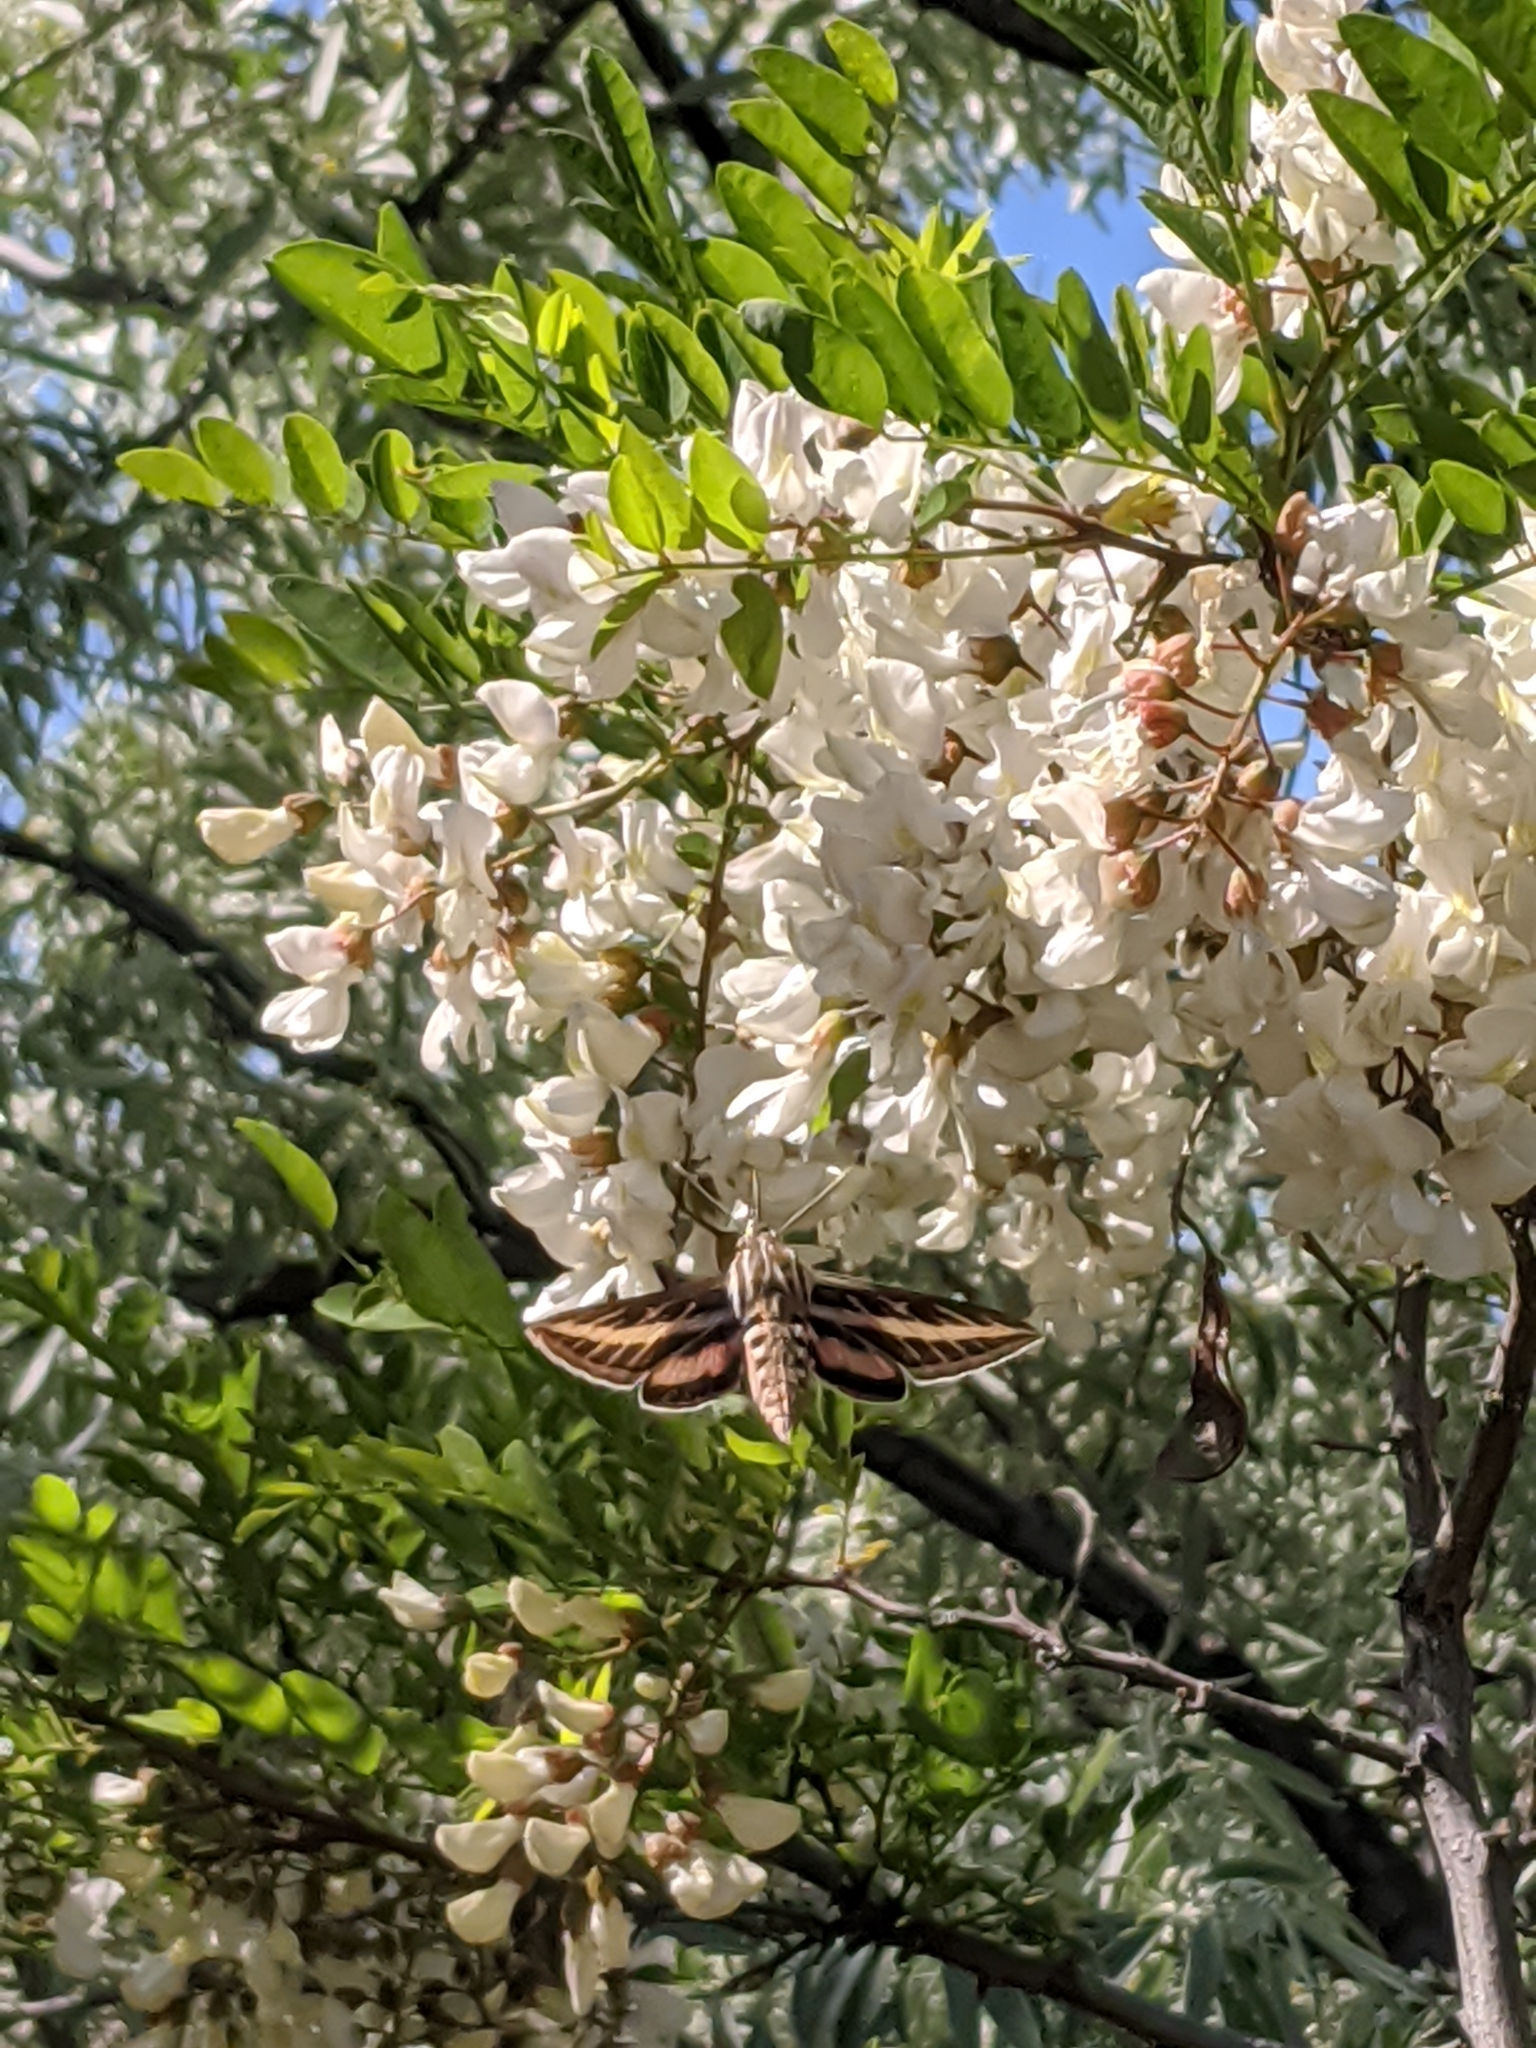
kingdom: Animalia
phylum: Arthropoda
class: Insecta
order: Lepidoptera
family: Sphingidae
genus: Hyles
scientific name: Hyles lineata
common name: White-lined sphinx
